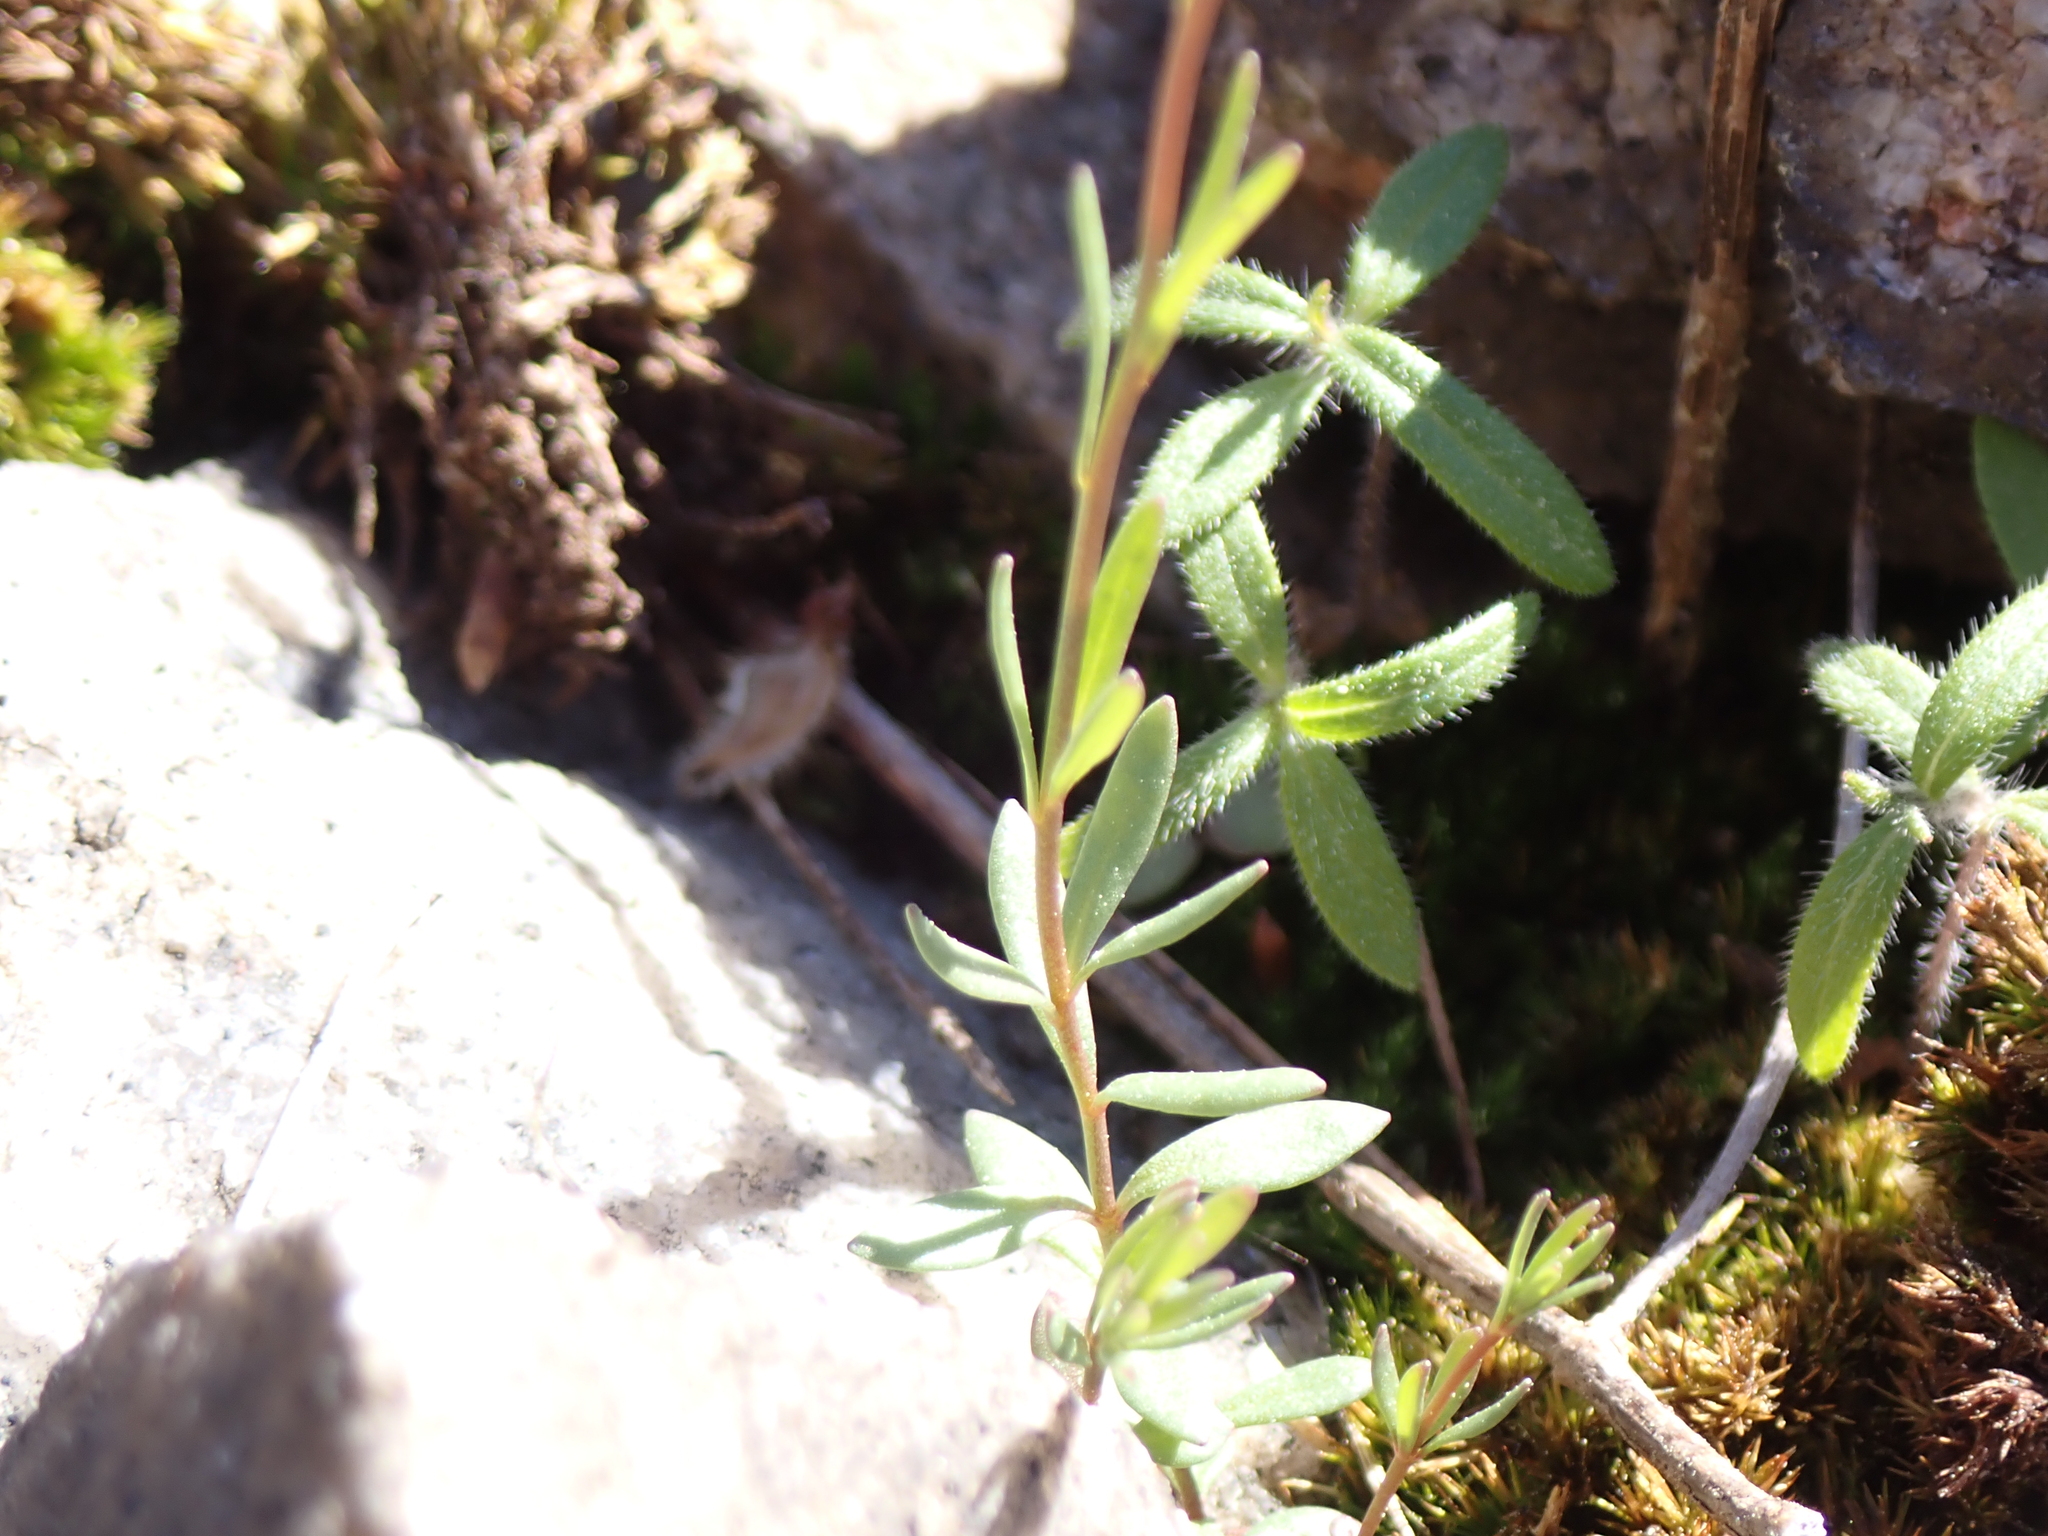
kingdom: Plantae
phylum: Tracheophyta
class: Magnoliopsida
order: Lamiales
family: Plantaginaceae
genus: Nuttallanthus
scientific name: Nuttallanthus canadensis
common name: Blue toadflax
